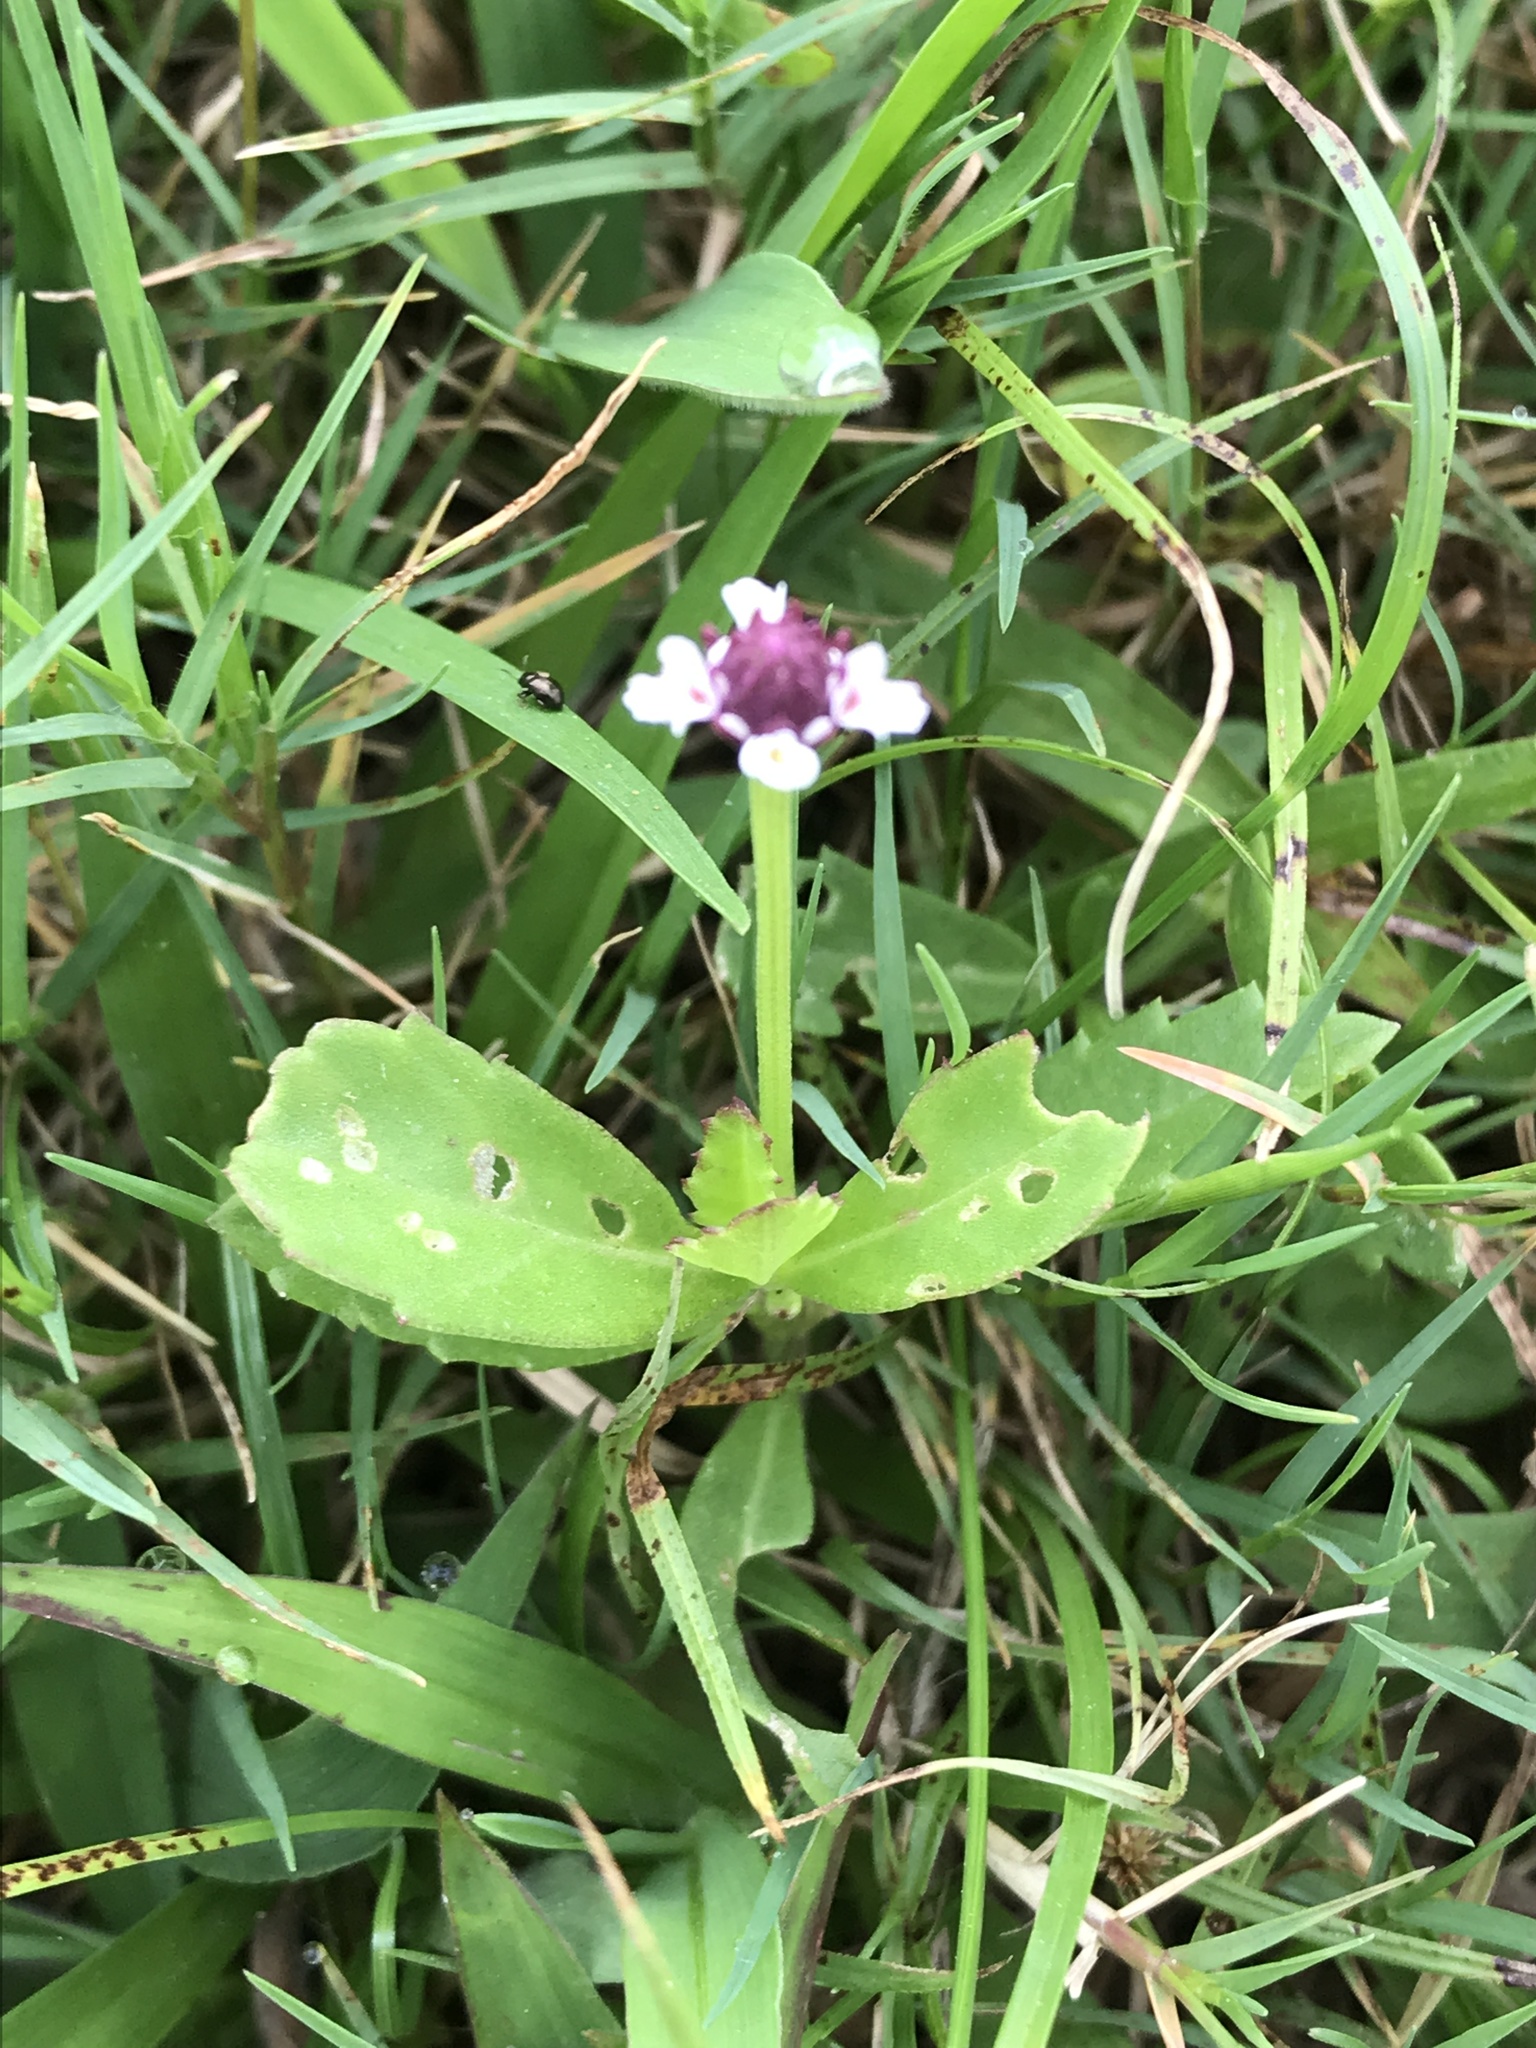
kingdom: Plantae
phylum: Tracheophyta
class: Magnoliopsida
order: Lamiales
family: Verbenaceae
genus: Phyla
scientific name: Phyla nodiflora
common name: Frogfruit
